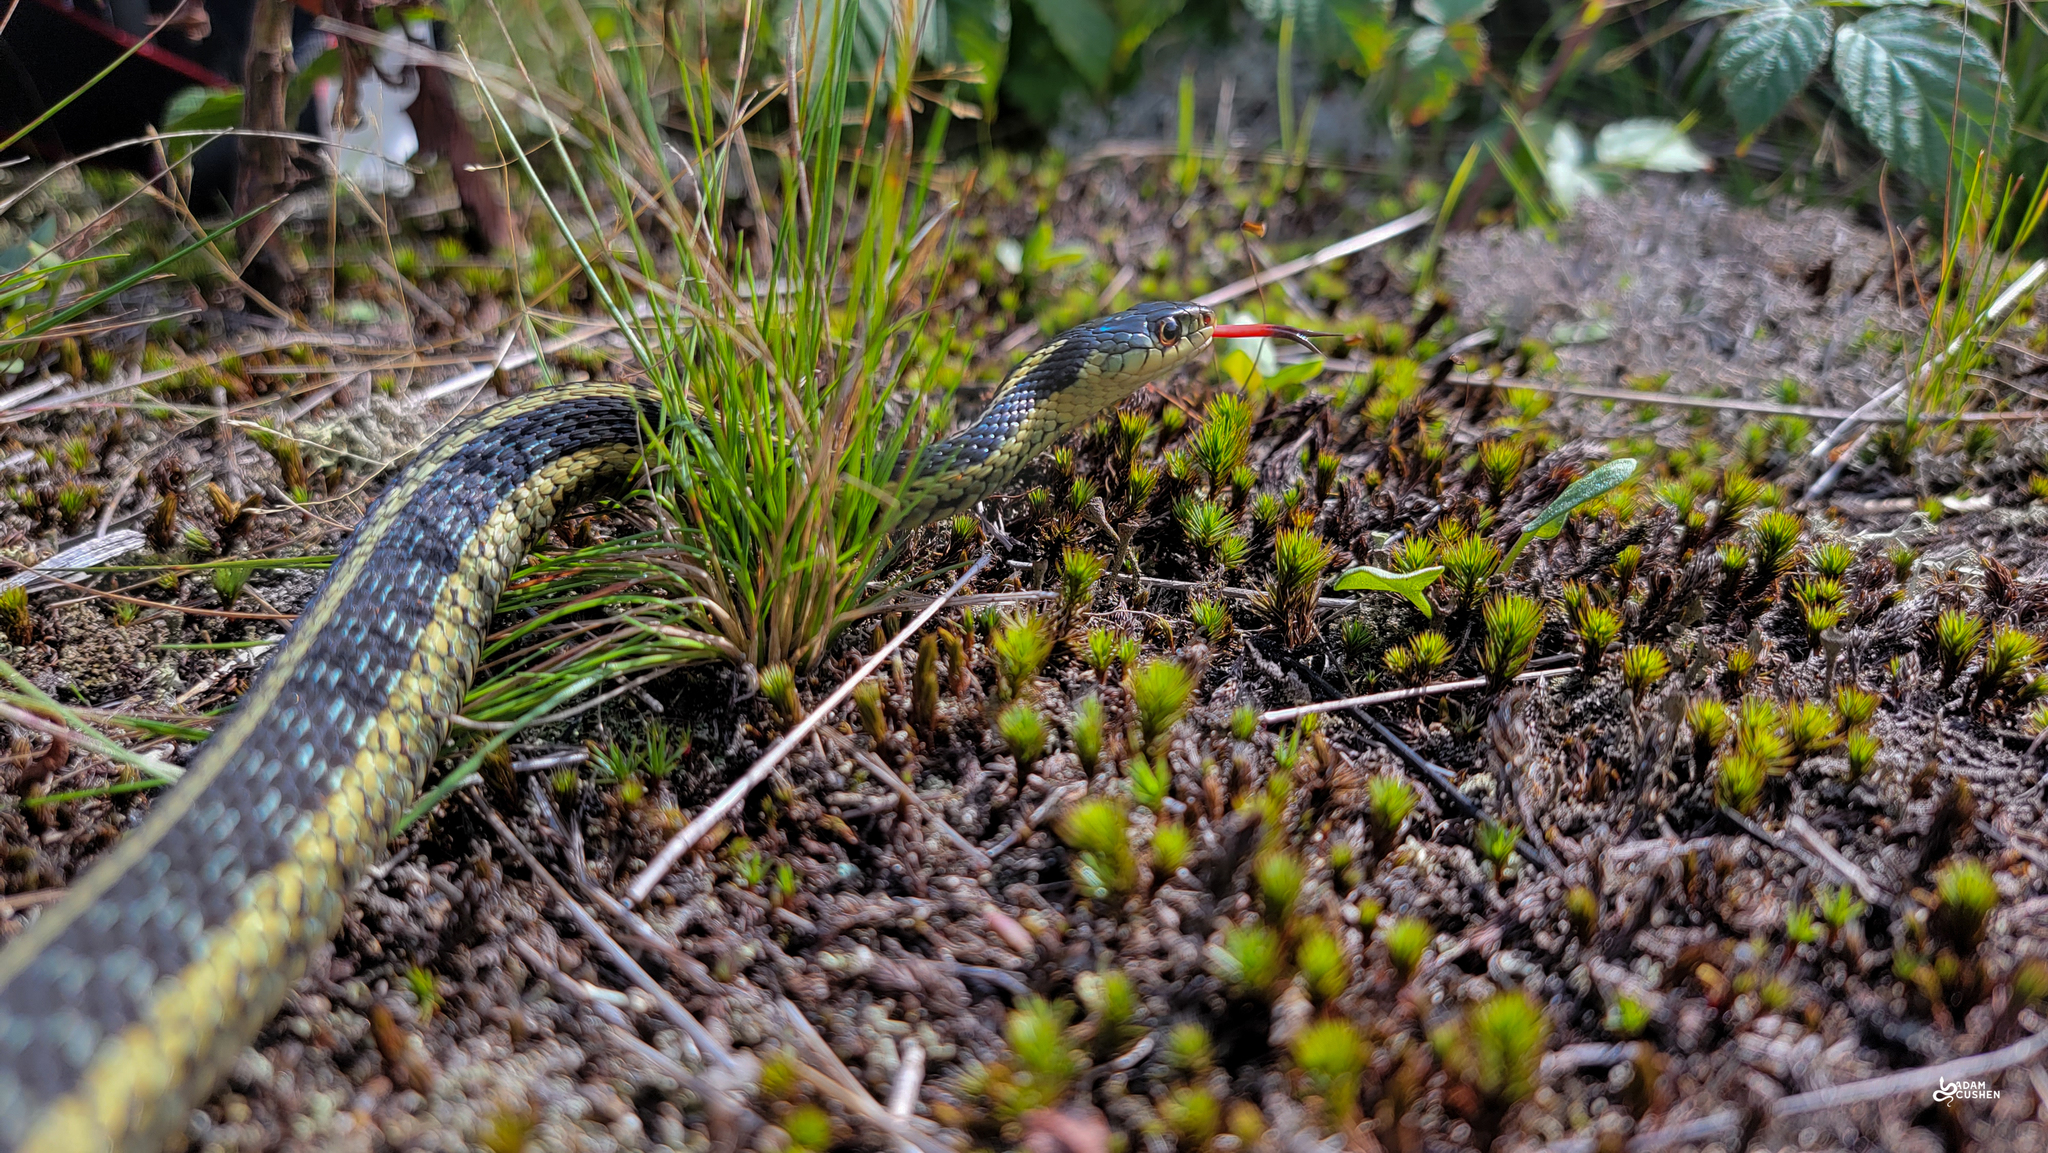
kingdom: Animalia
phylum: Chordata
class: Squamata
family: Colubridae
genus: Thamnophis
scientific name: Thamnophis sirtalis
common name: Common garter snake
